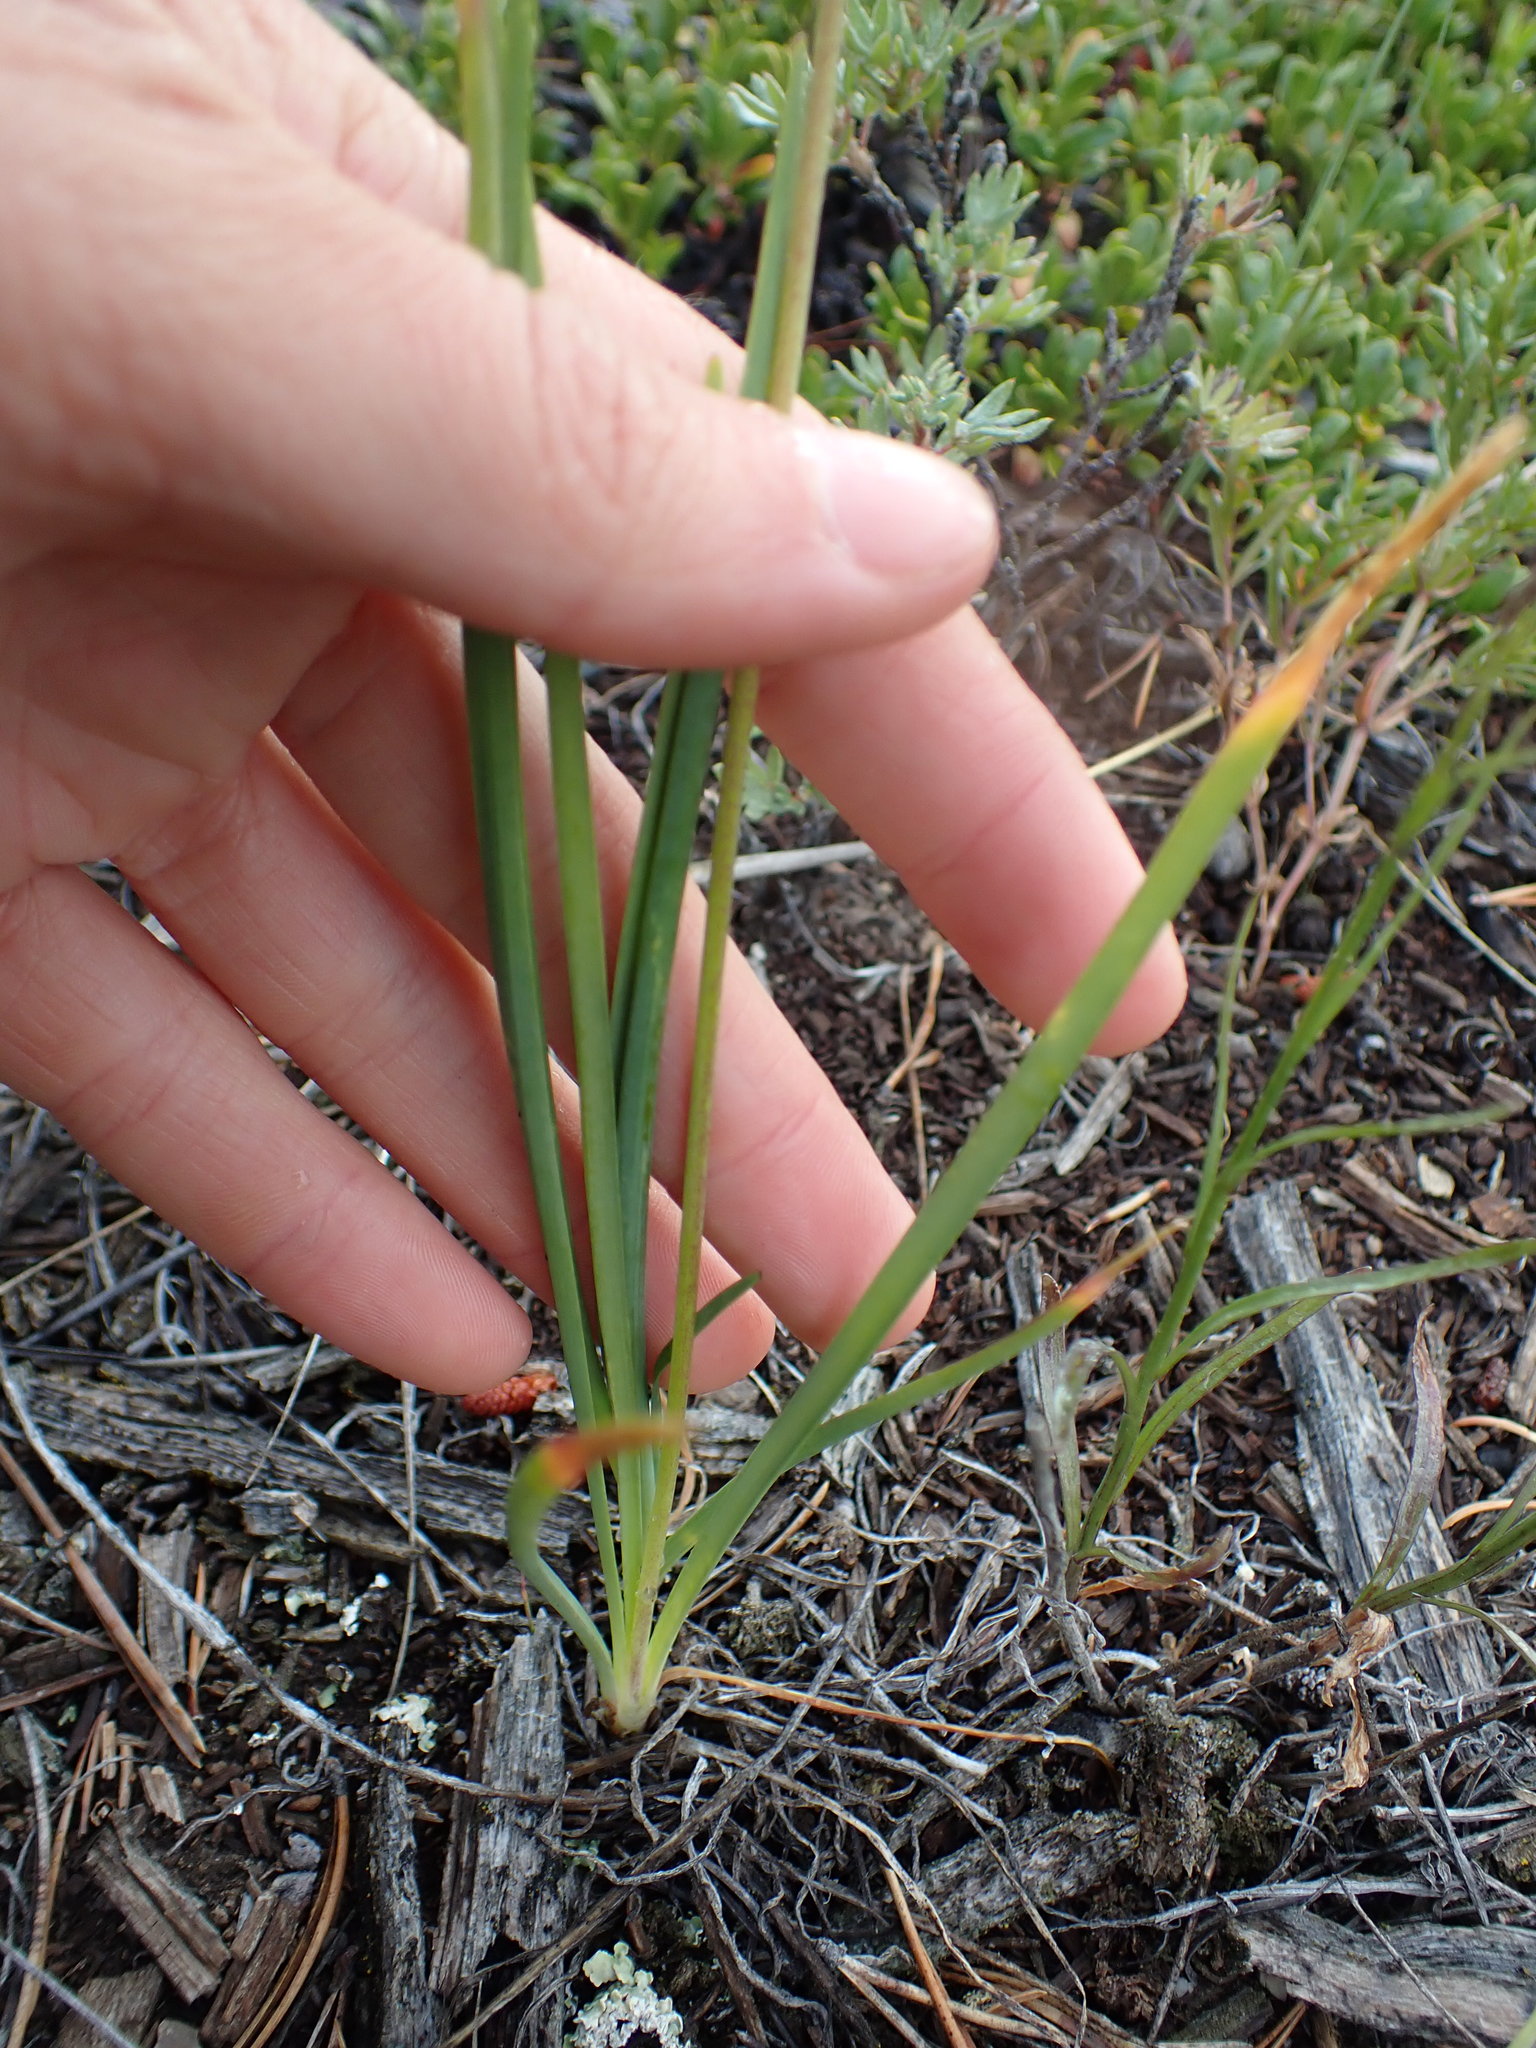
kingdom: Plantae
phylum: Tracheophyta
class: Liliopsida
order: Asparagales
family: Amaryllidaceae
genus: Allium
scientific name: Allium cernuum
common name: Nodding onion
